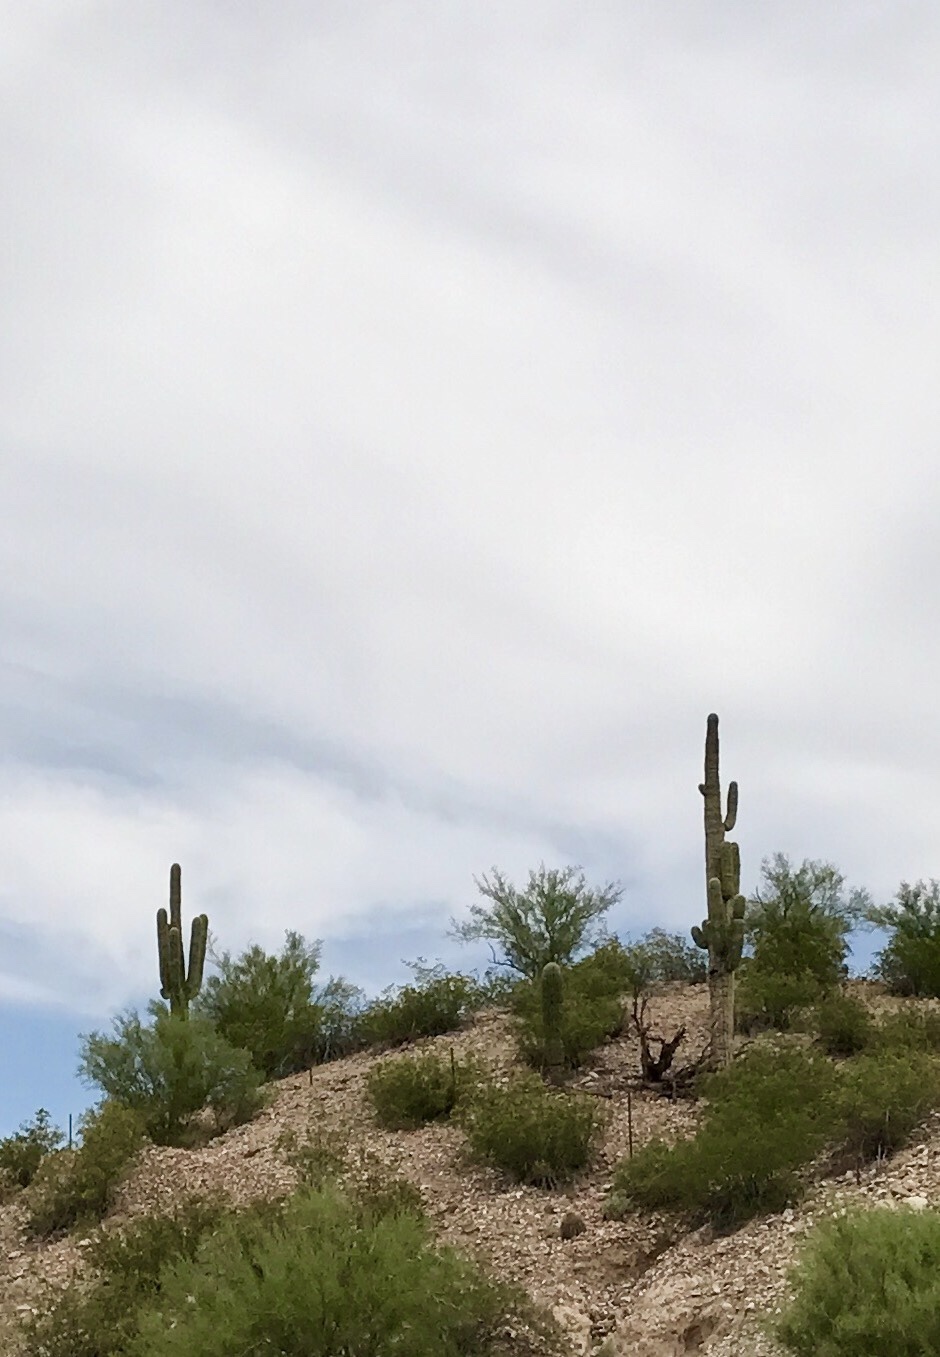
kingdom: Plantae
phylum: Tracheophyta
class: Magnoliopsida
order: Caryophyllales
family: Cactaceae
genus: Carnegiea
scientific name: Carnegiea gigantea
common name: Saguaro
